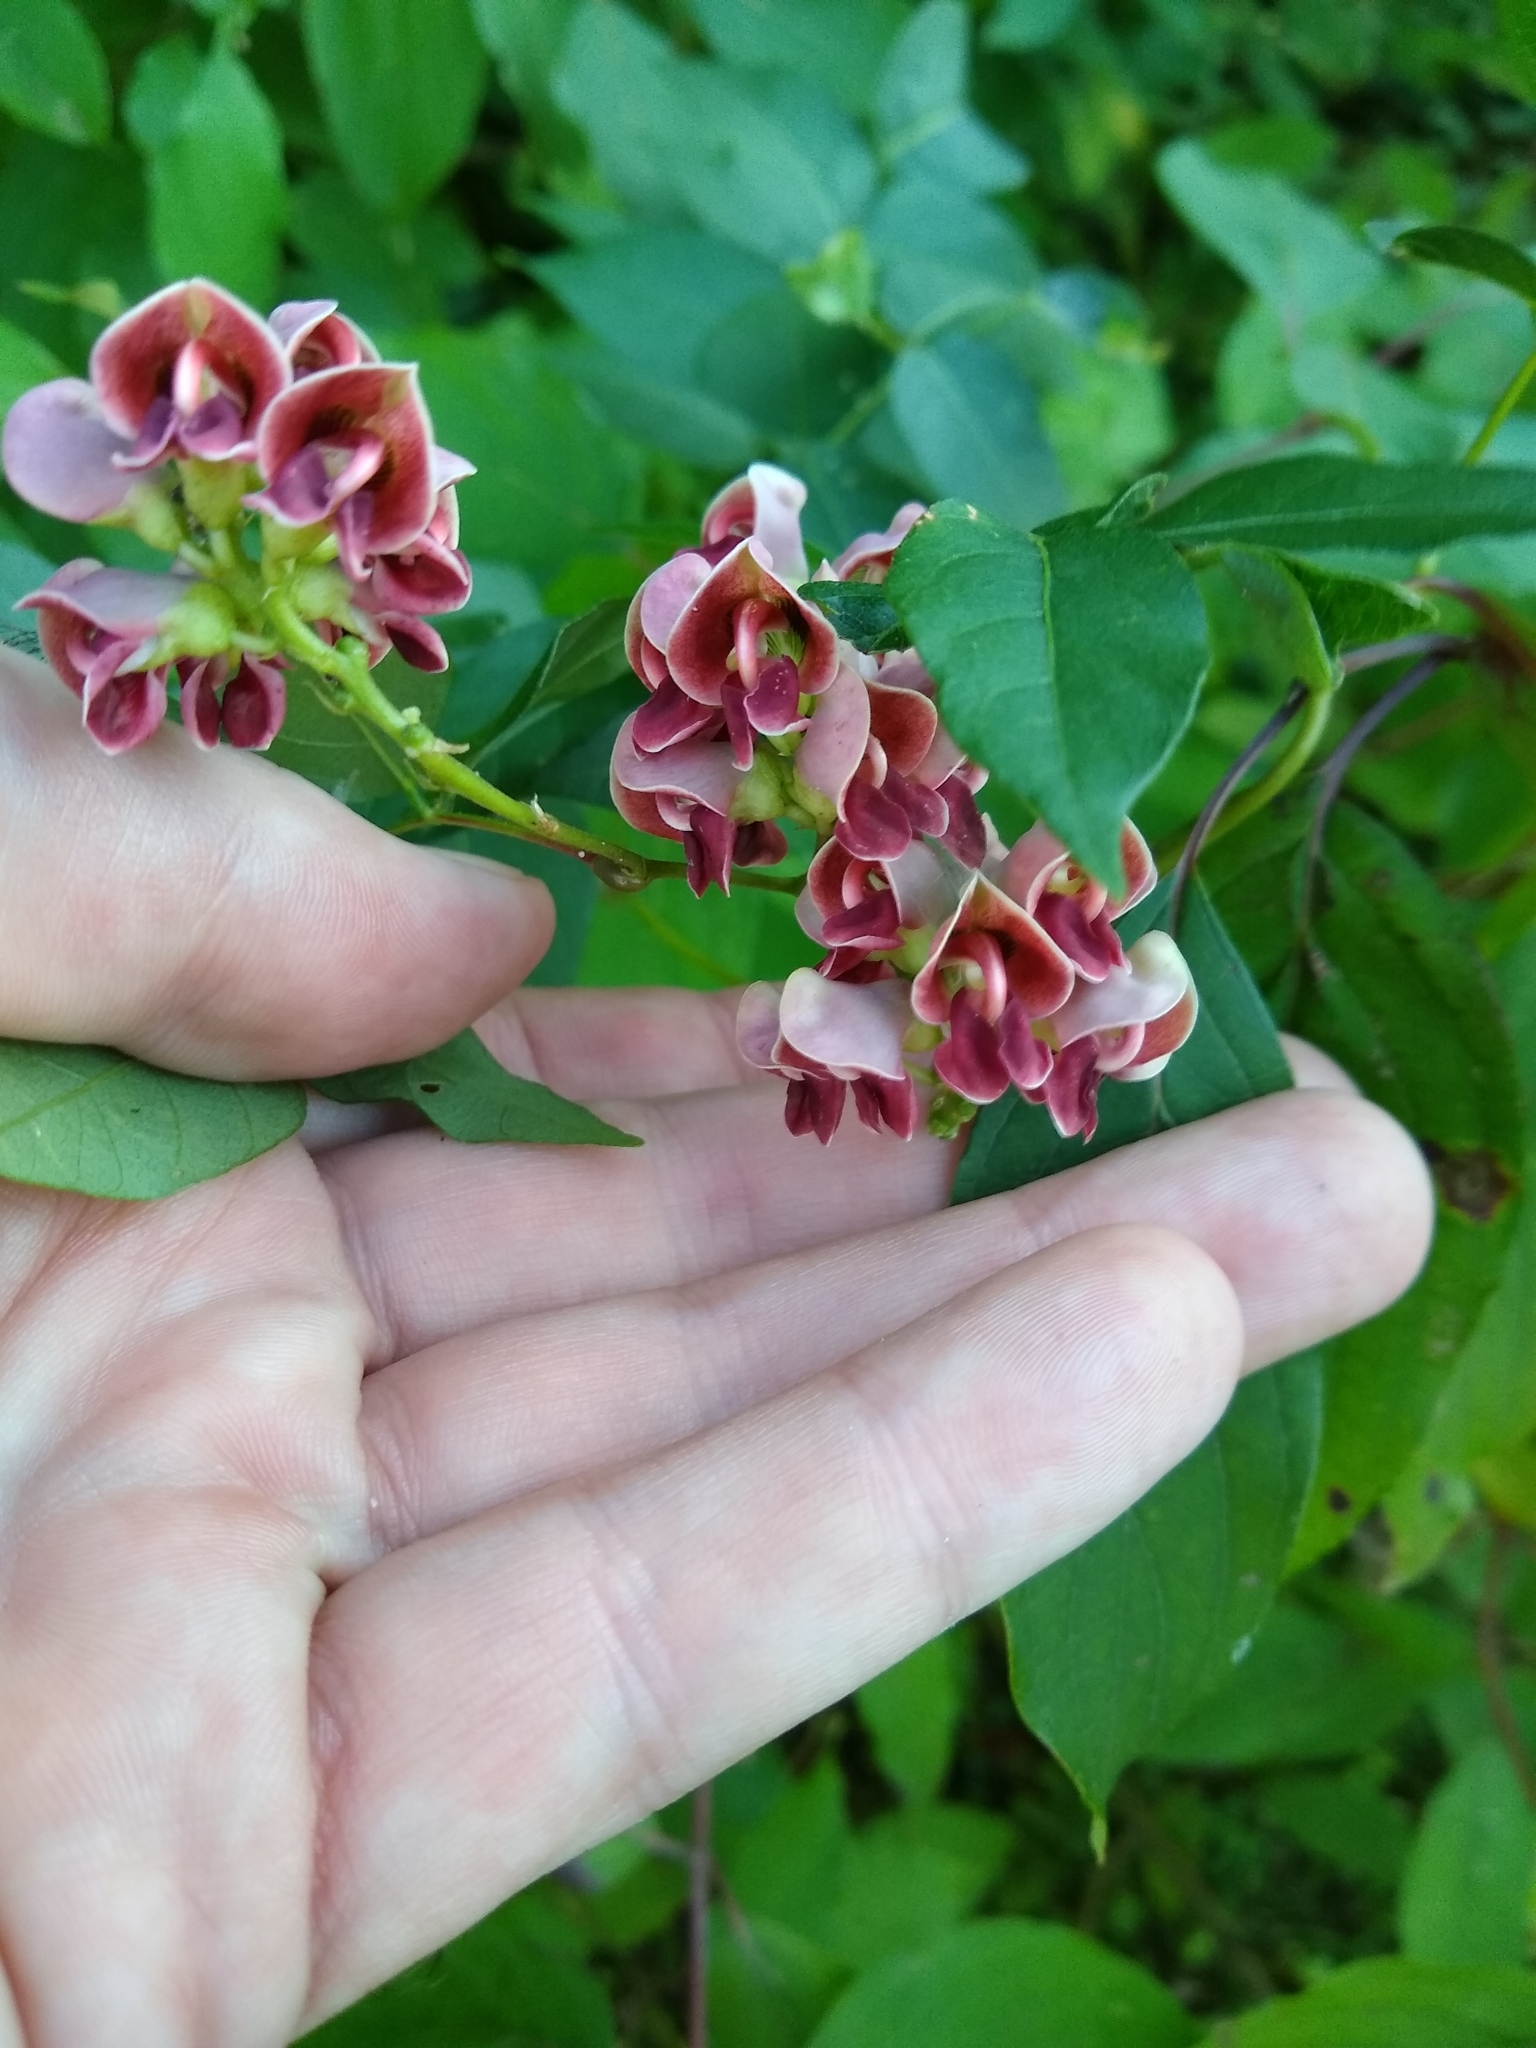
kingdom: Plantae
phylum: Tracheophyta
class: Magnoliopsida
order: Fabales
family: Fabaceae
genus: Apios
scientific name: Apios americana
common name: American potato-bean
